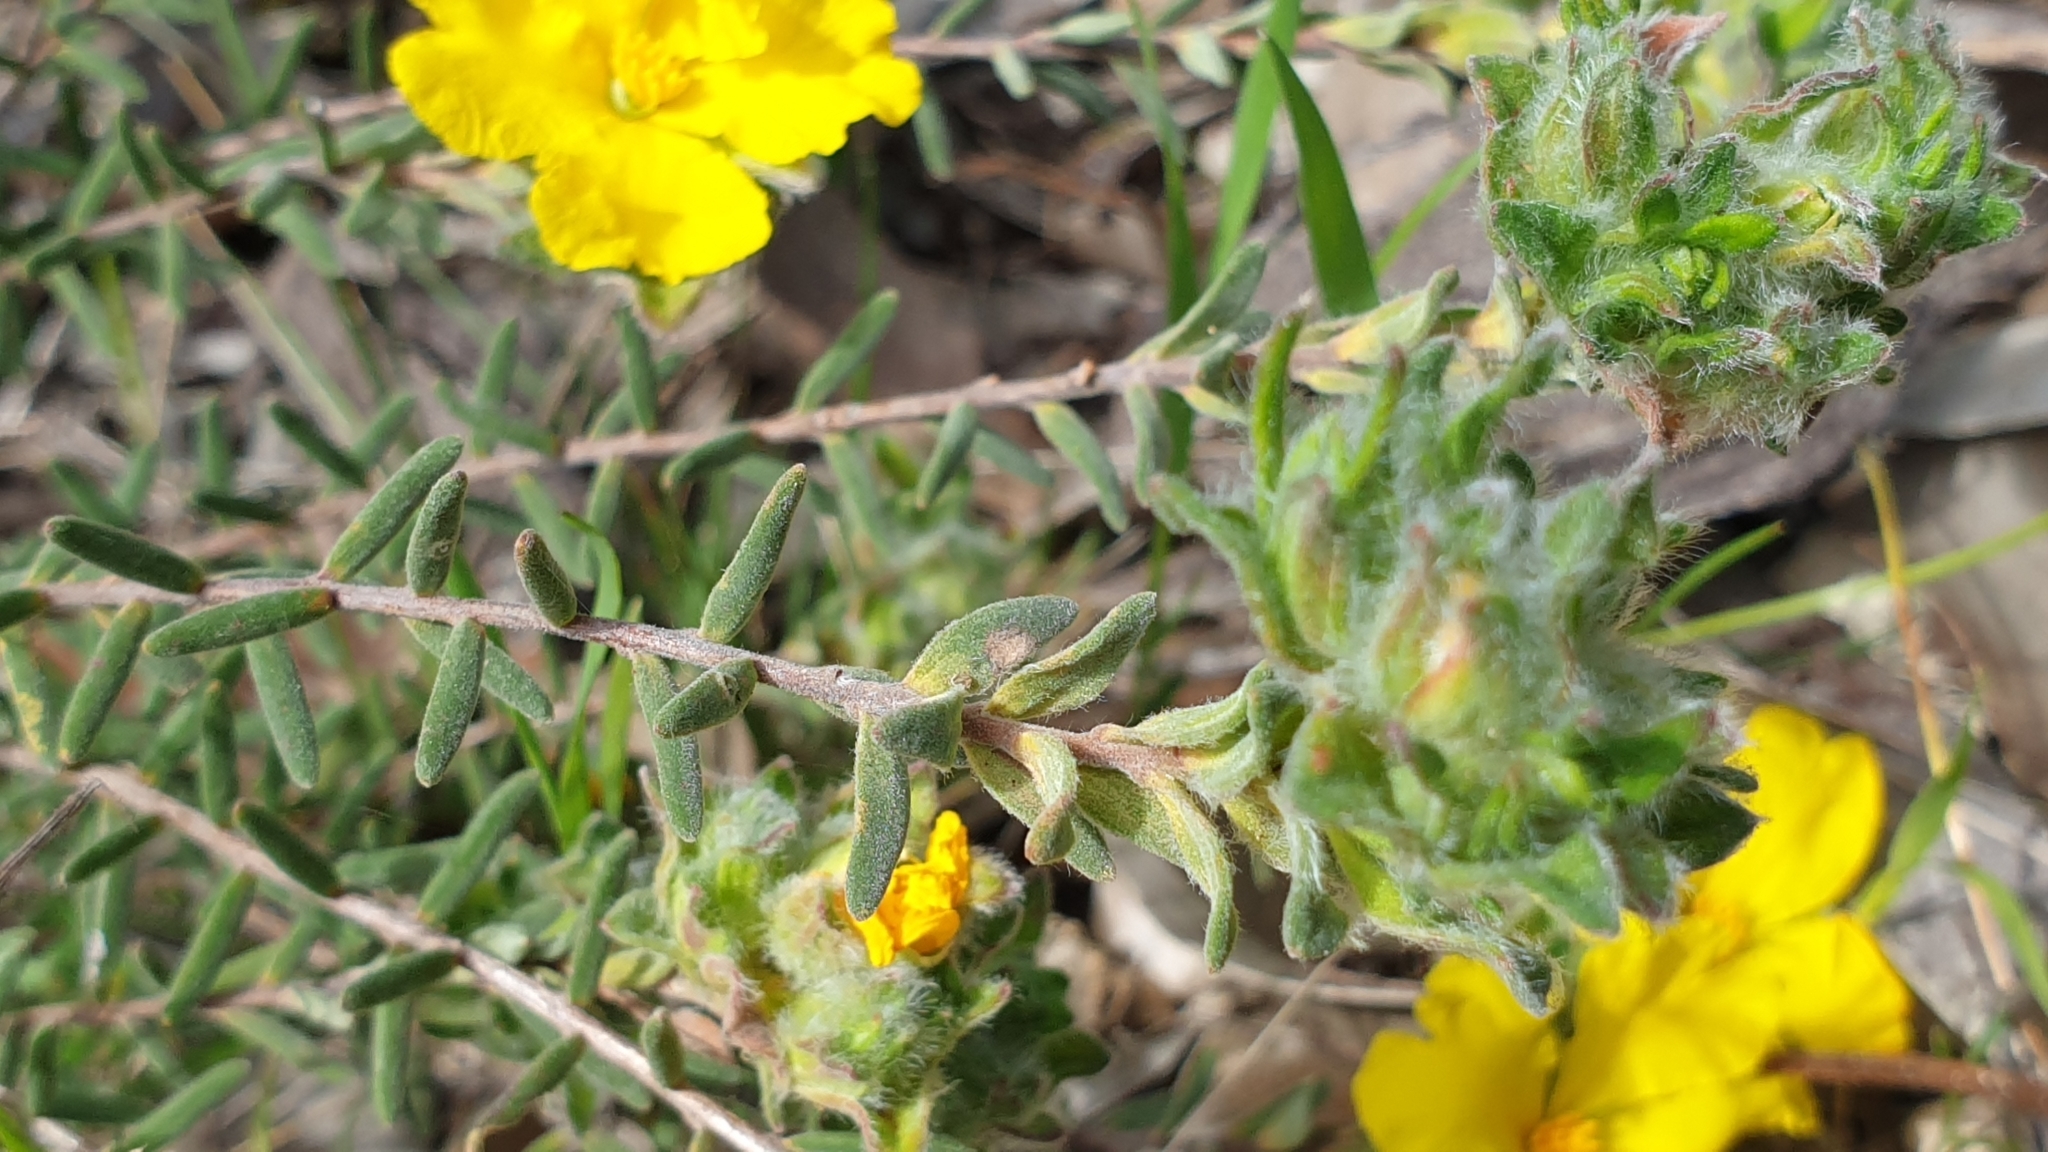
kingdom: Plantae
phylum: Tracheophyta
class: Magnoliopsida
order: Dilleniales
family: Dilleniaceae
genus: Hibbertia
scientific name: Hibbertia crinita
